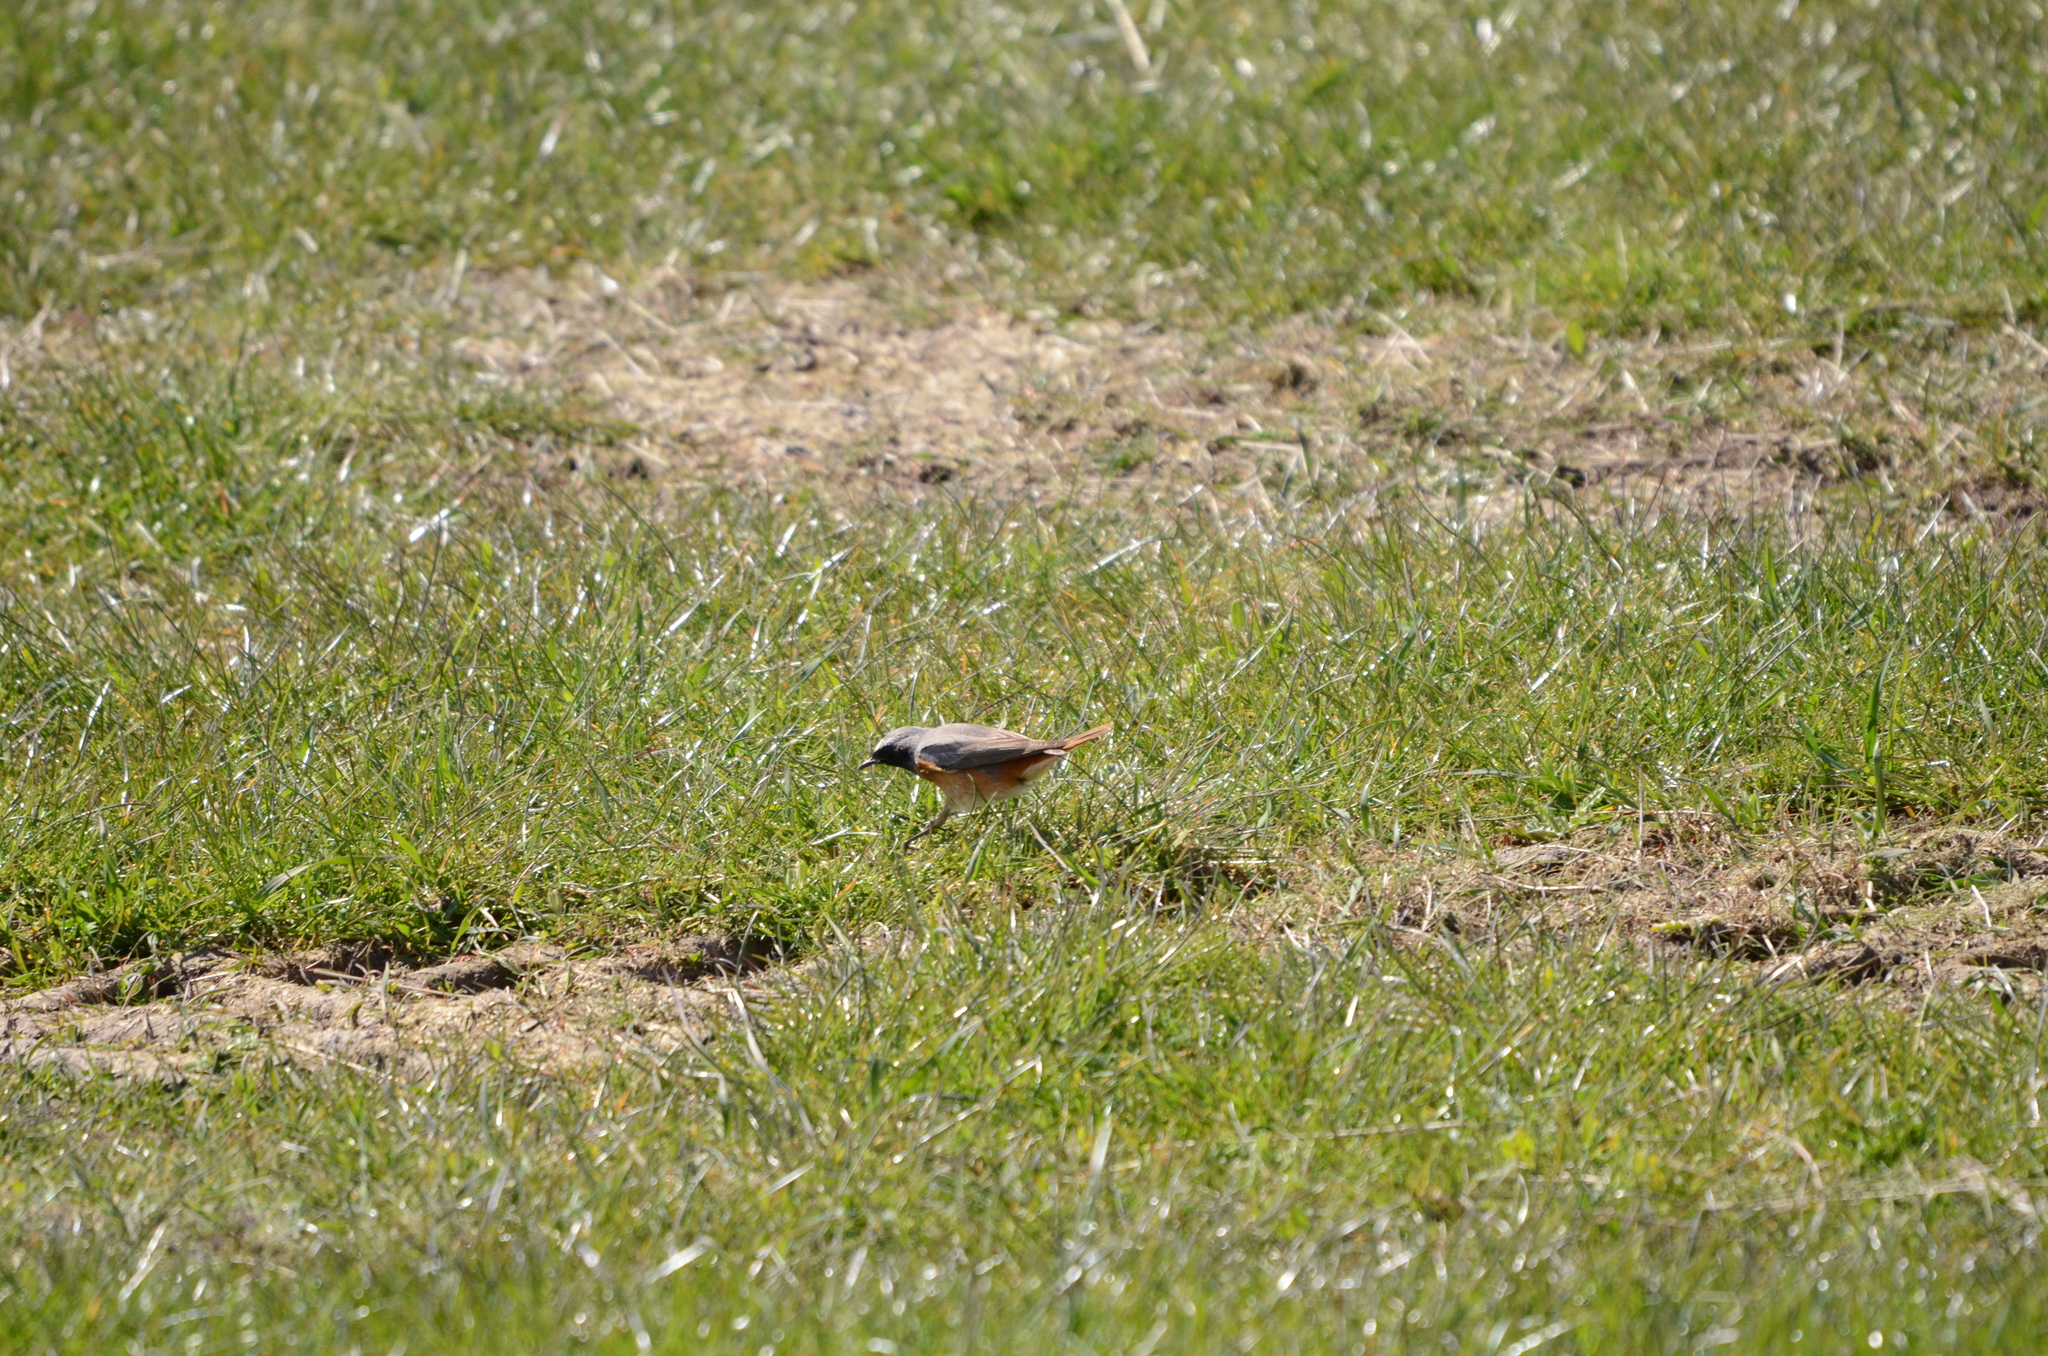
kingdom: Animalia
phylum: Chordata
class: Aves
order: Passeriformes
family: Muscicapidae
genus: Phoenicurus
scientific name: Phoenicurus phoenicurus
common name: Common redstart
